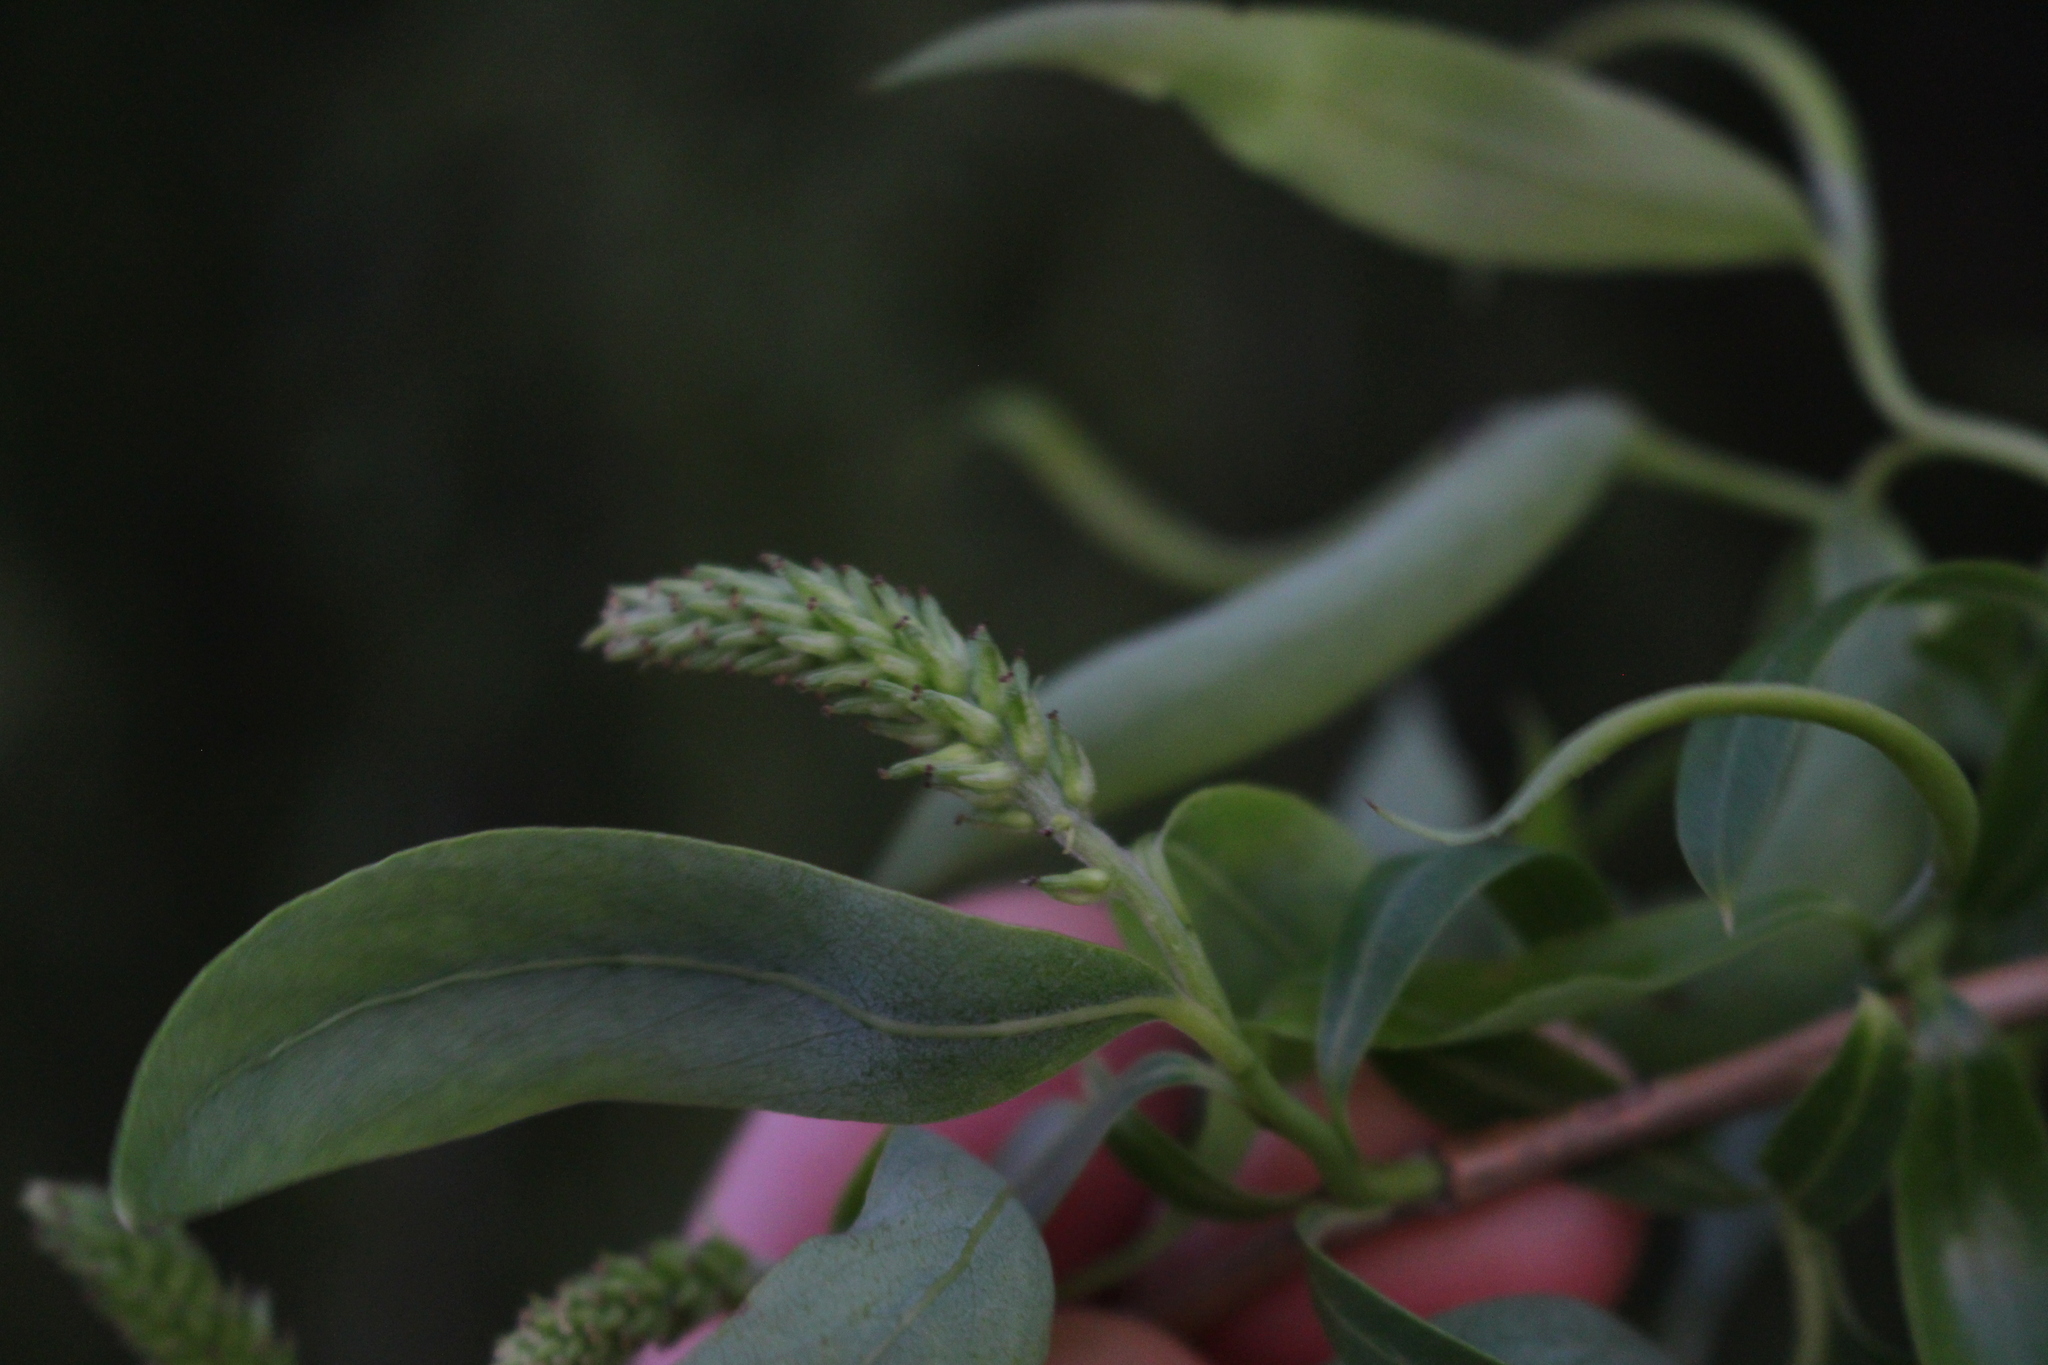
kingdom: Plantae
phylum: Tracheophyta
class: Magnoliopsida
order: Malpighiales
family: Salicaceae
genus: Salix
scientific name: Salix babylonica
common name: Weeping willow
